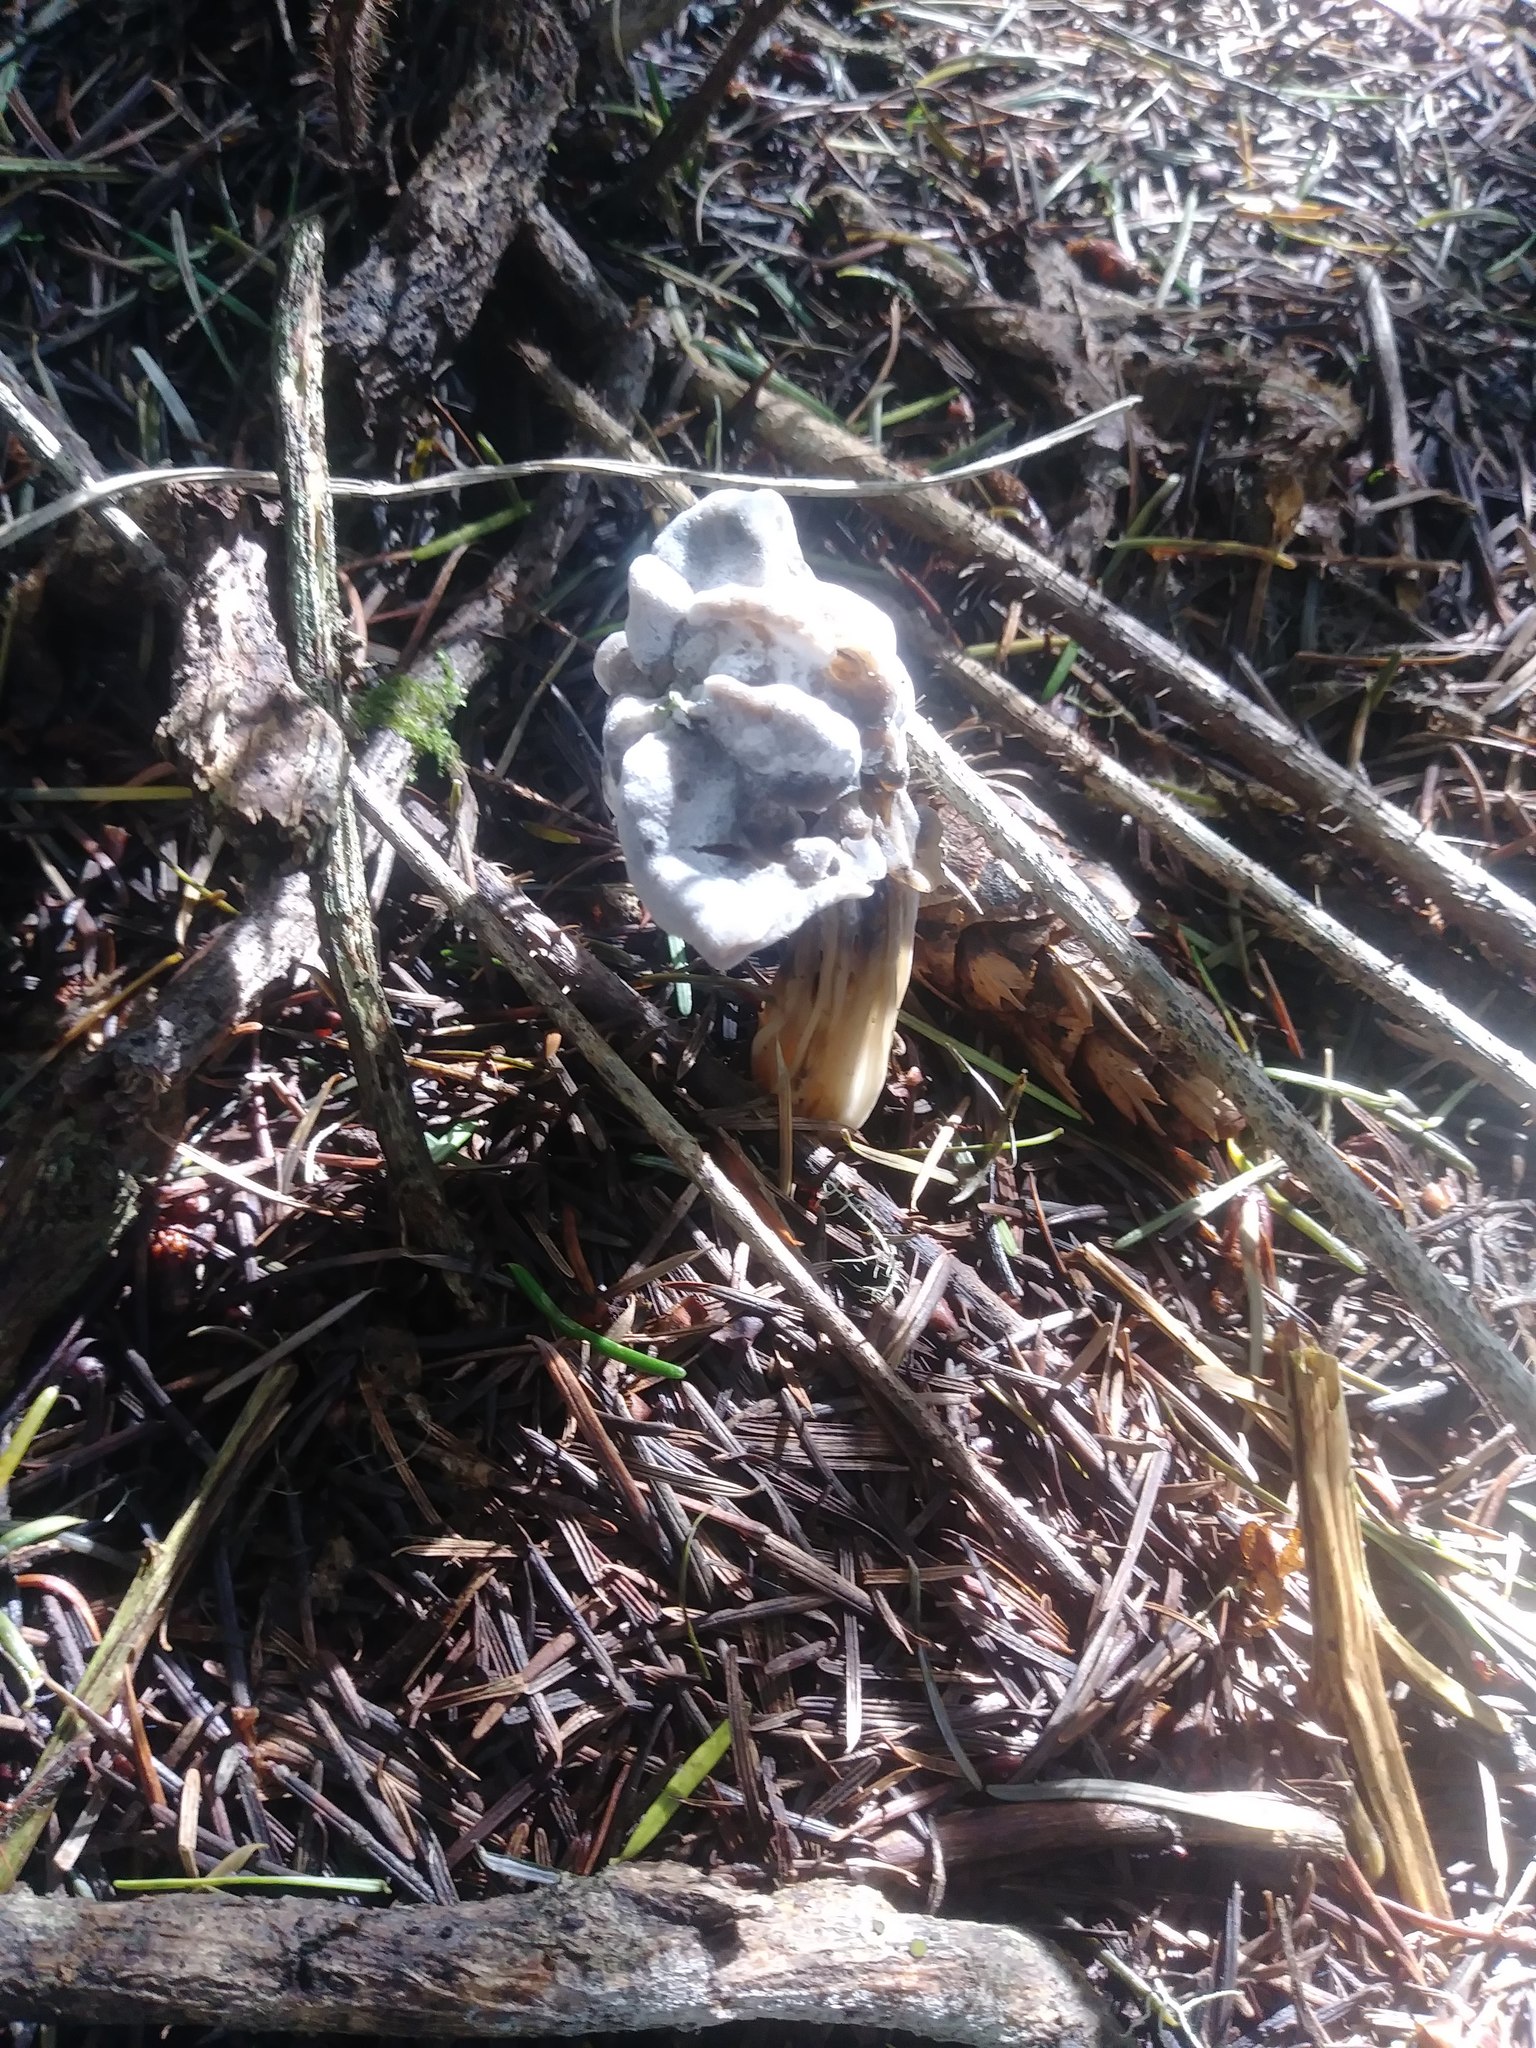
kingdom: Fungi
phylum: Ascomycota
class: Pezizomycetes
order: Pezizales
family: Helvellaceae
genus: Helvella
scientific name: Helvella vespertina
